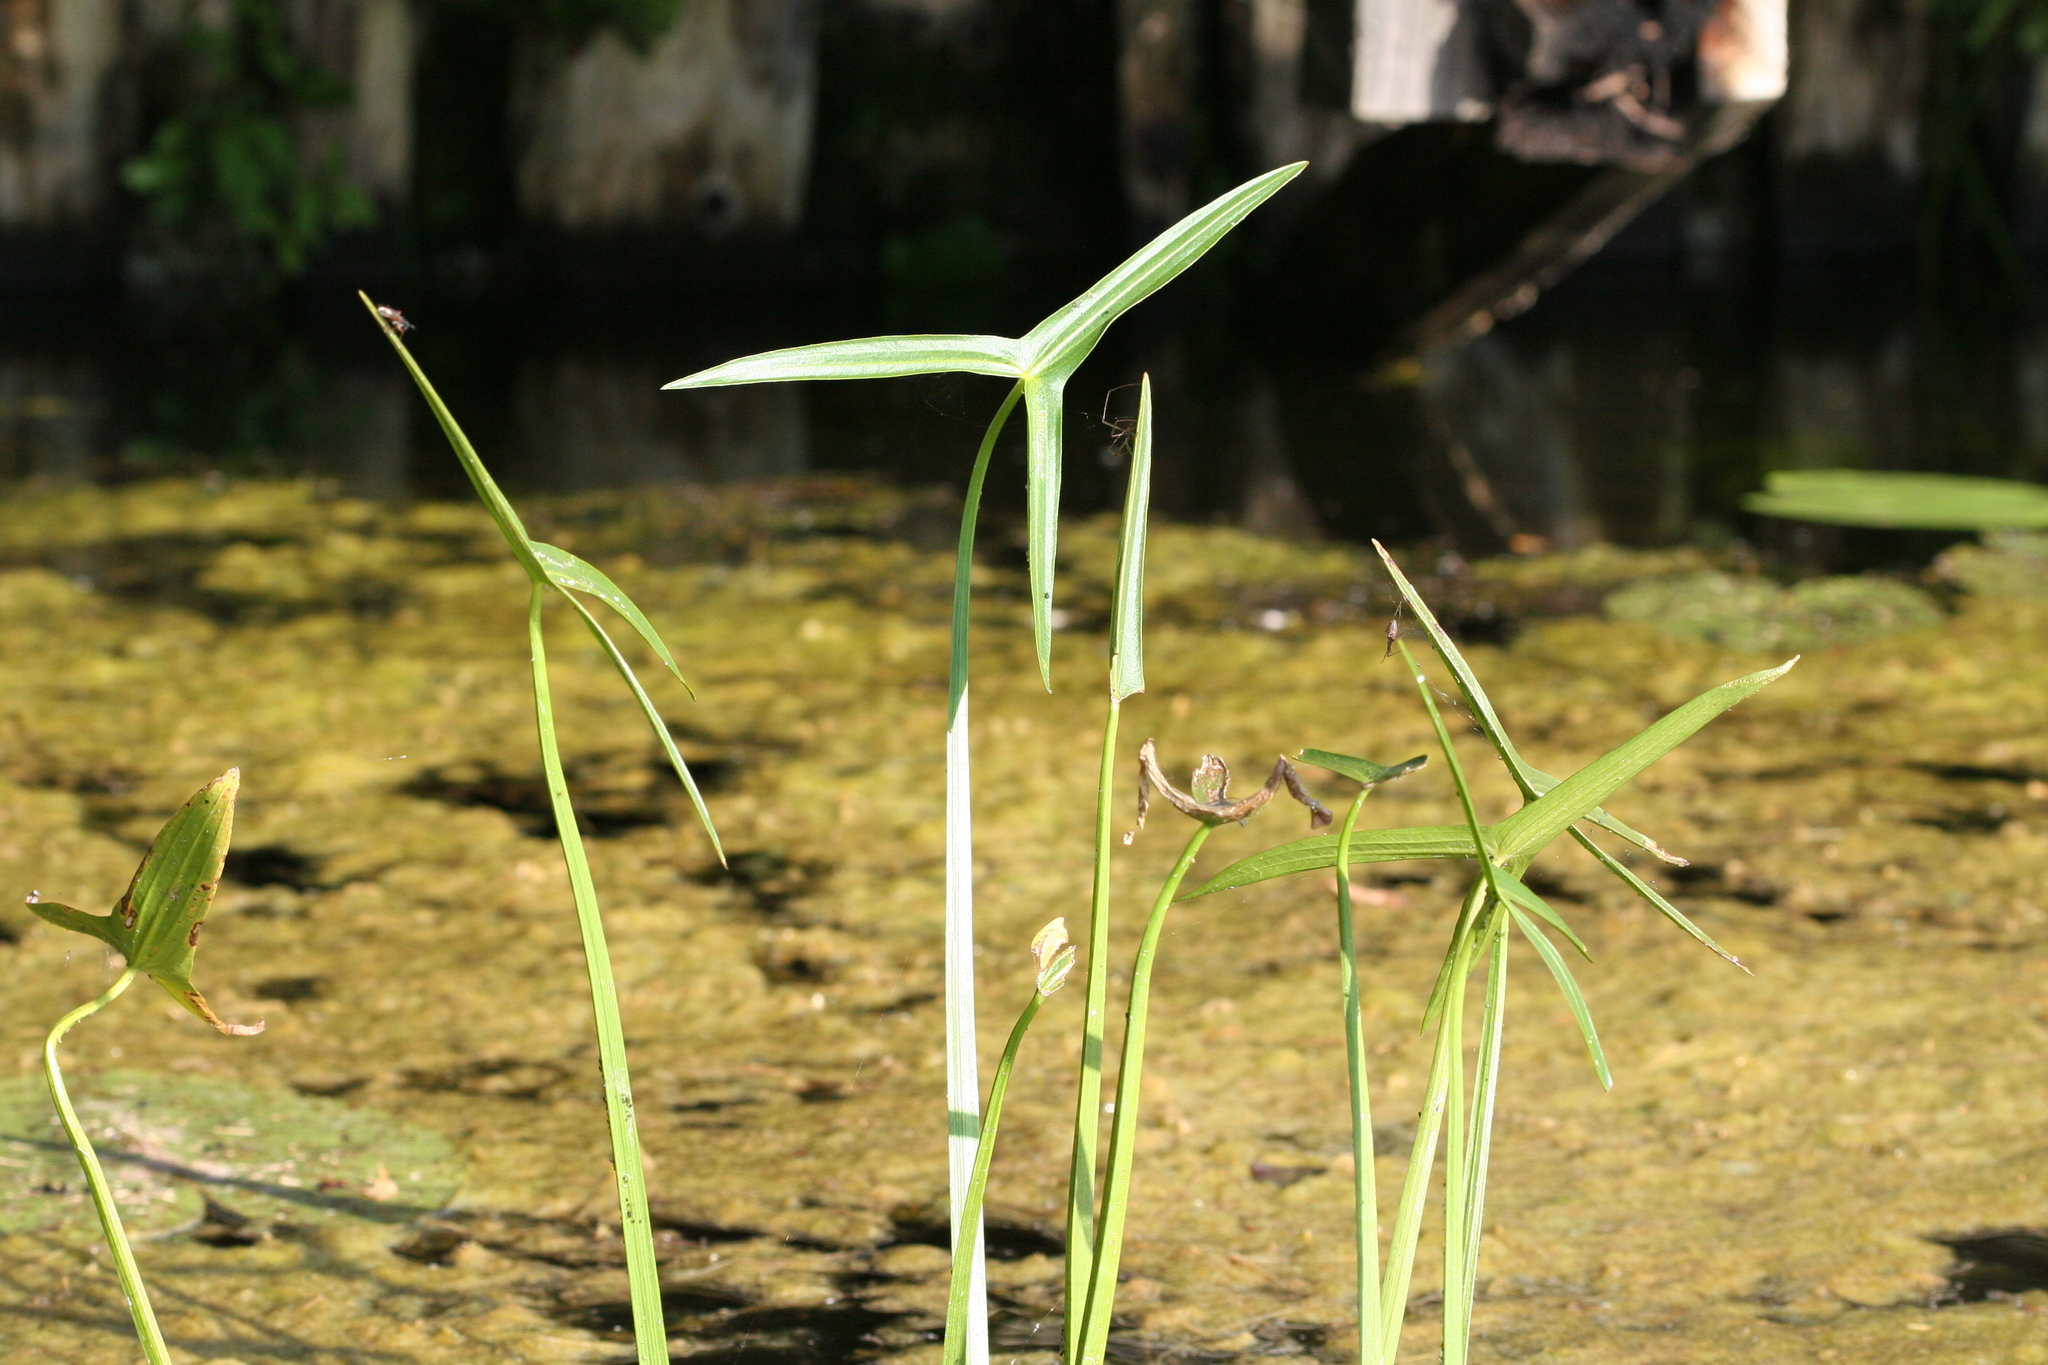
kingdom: Plantae
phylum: Tracheophyta
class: Liliopsida
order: Alismatales
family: Alismataceae
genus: Sagittaria
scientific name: Sagittaria sagittifolia
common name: Arrowhead
